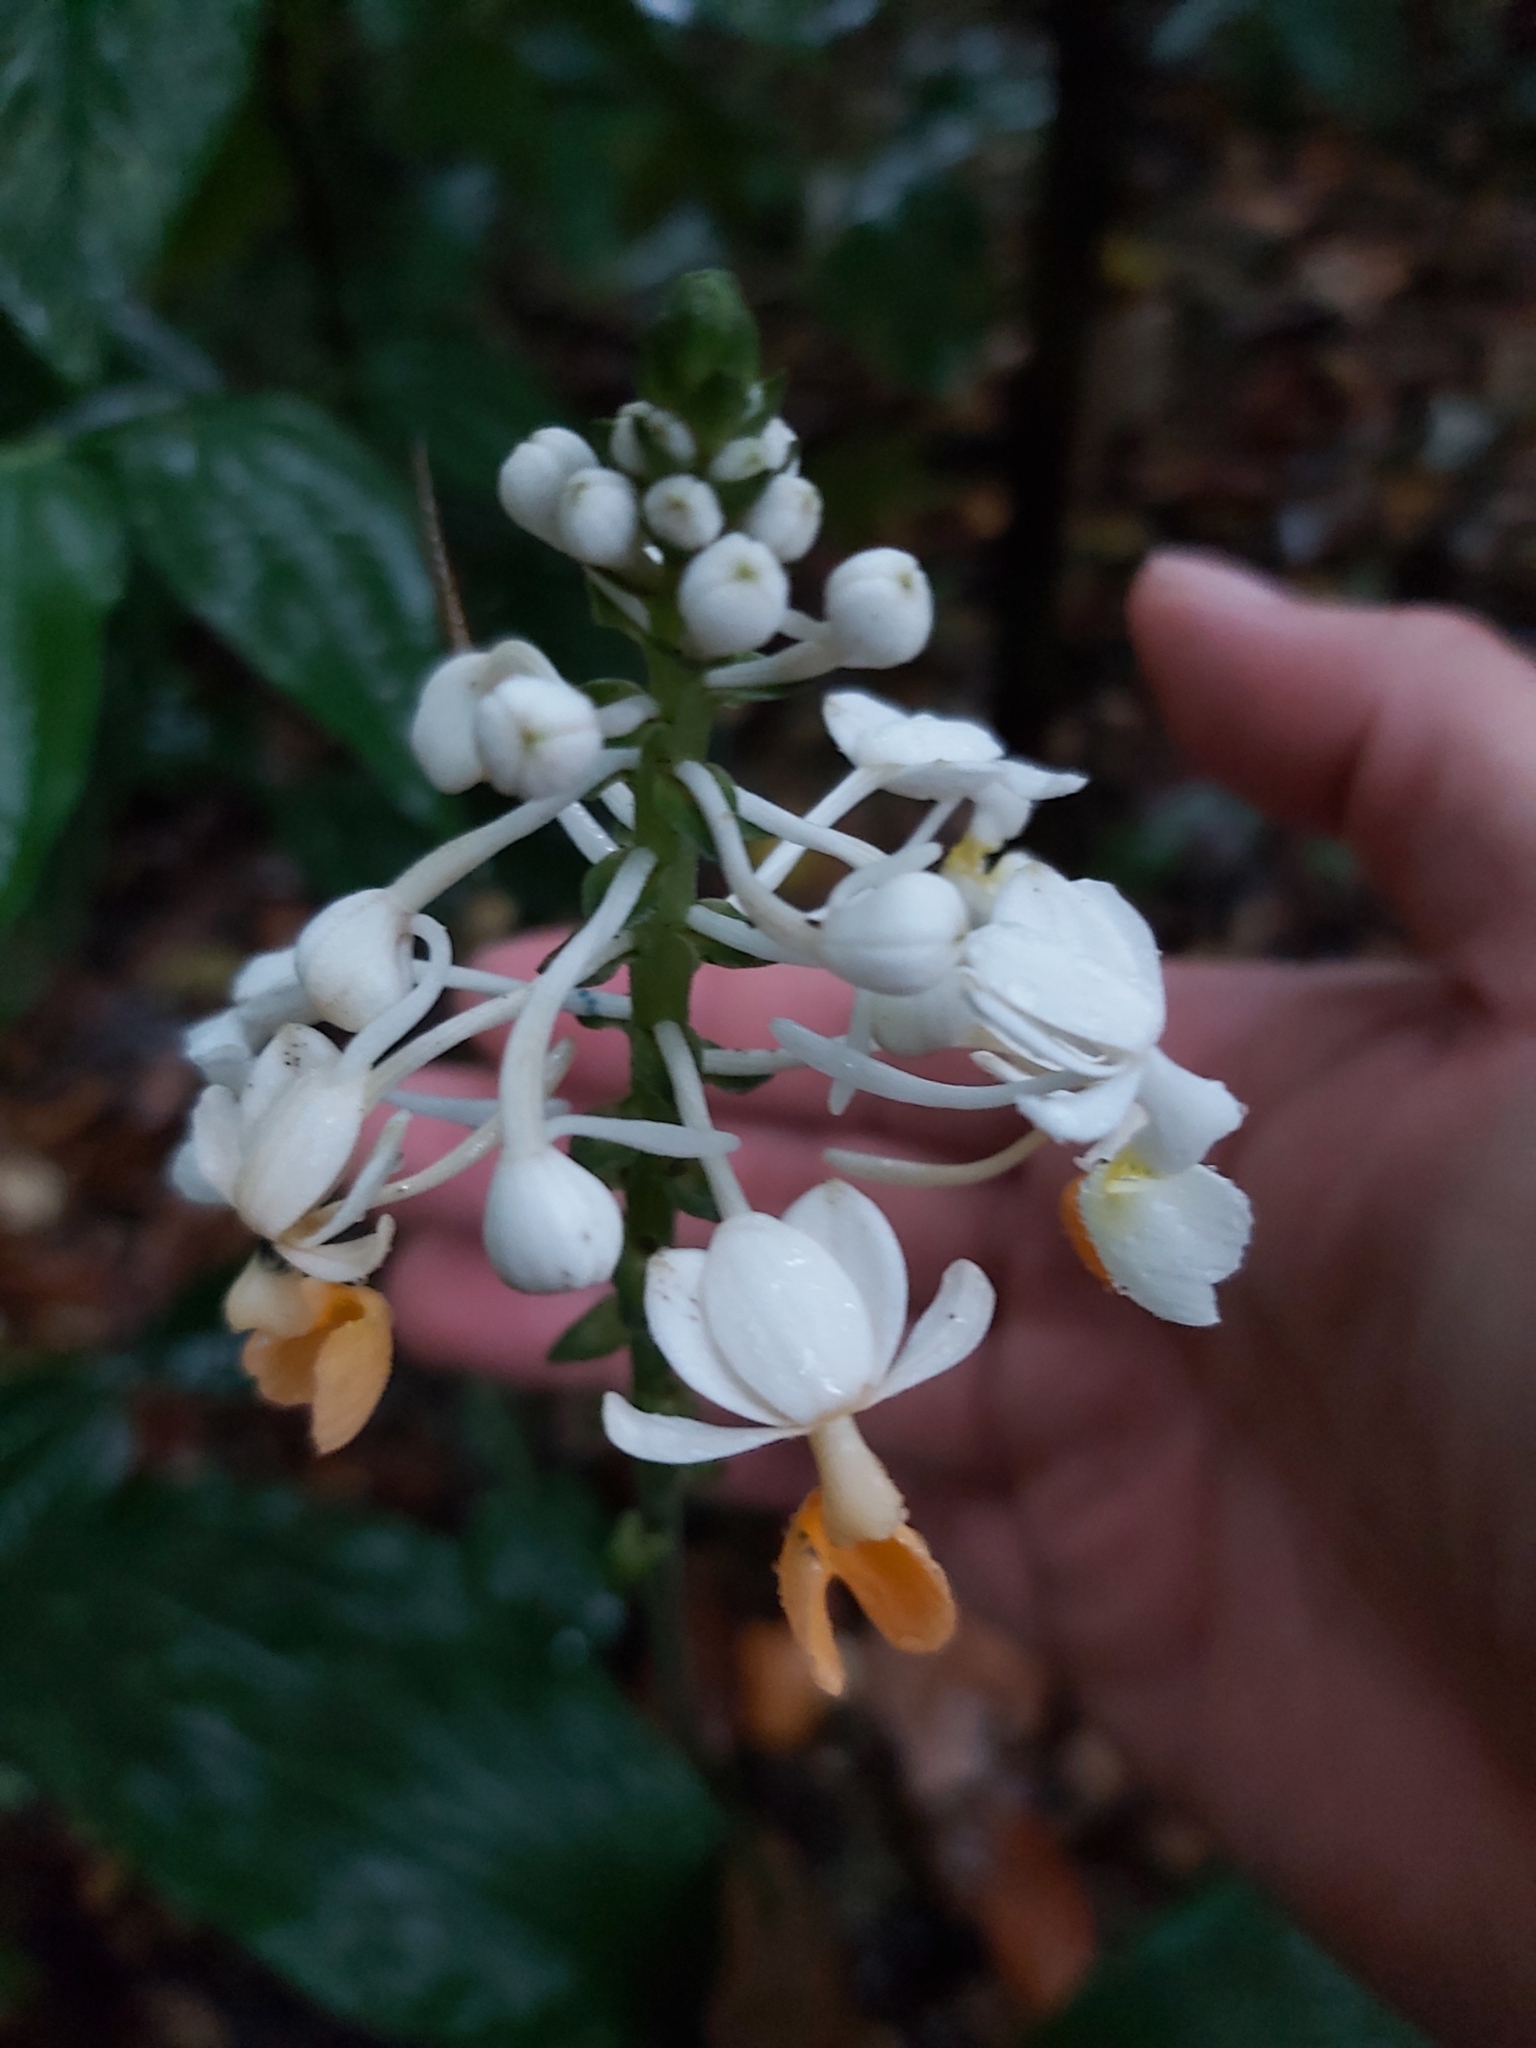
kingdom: Plantae
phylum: Tracheophyta
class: Liliopsida
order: Asparagales
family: Orchidaceae
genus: Calanthe
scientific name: Calanthe zollingeri
